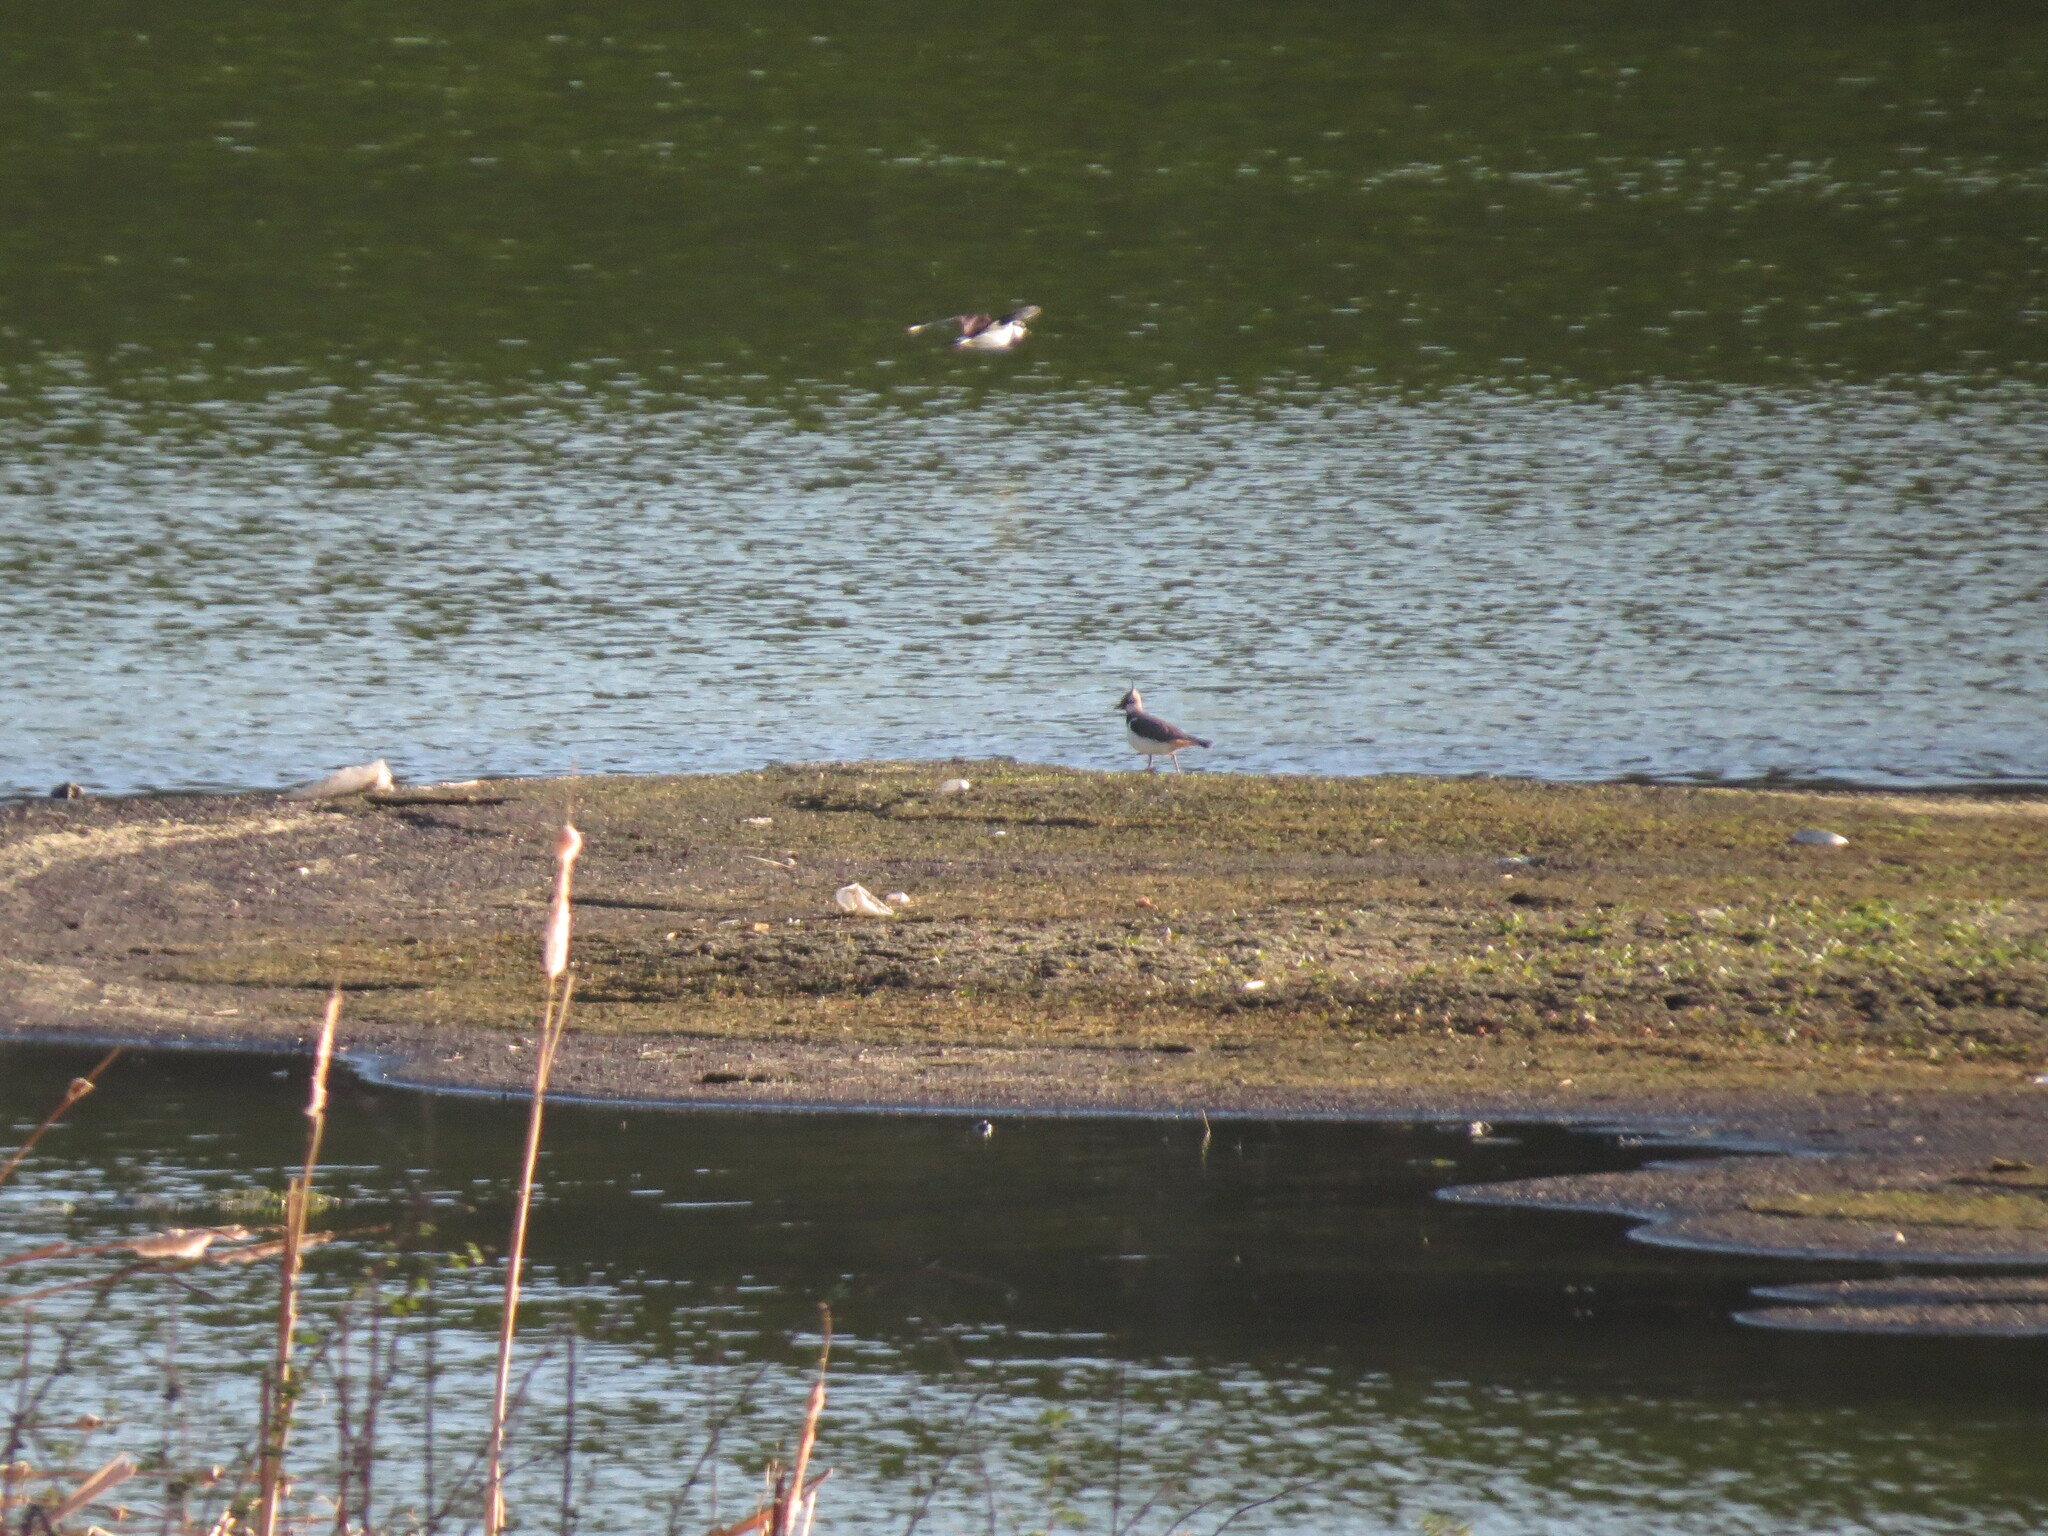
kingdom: Animalia
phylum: Chordata
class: Aves
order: Charadriiformes
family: Charadriidae
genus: Vanellus
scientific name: Vanellus vanellus
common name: Northern lapwing
